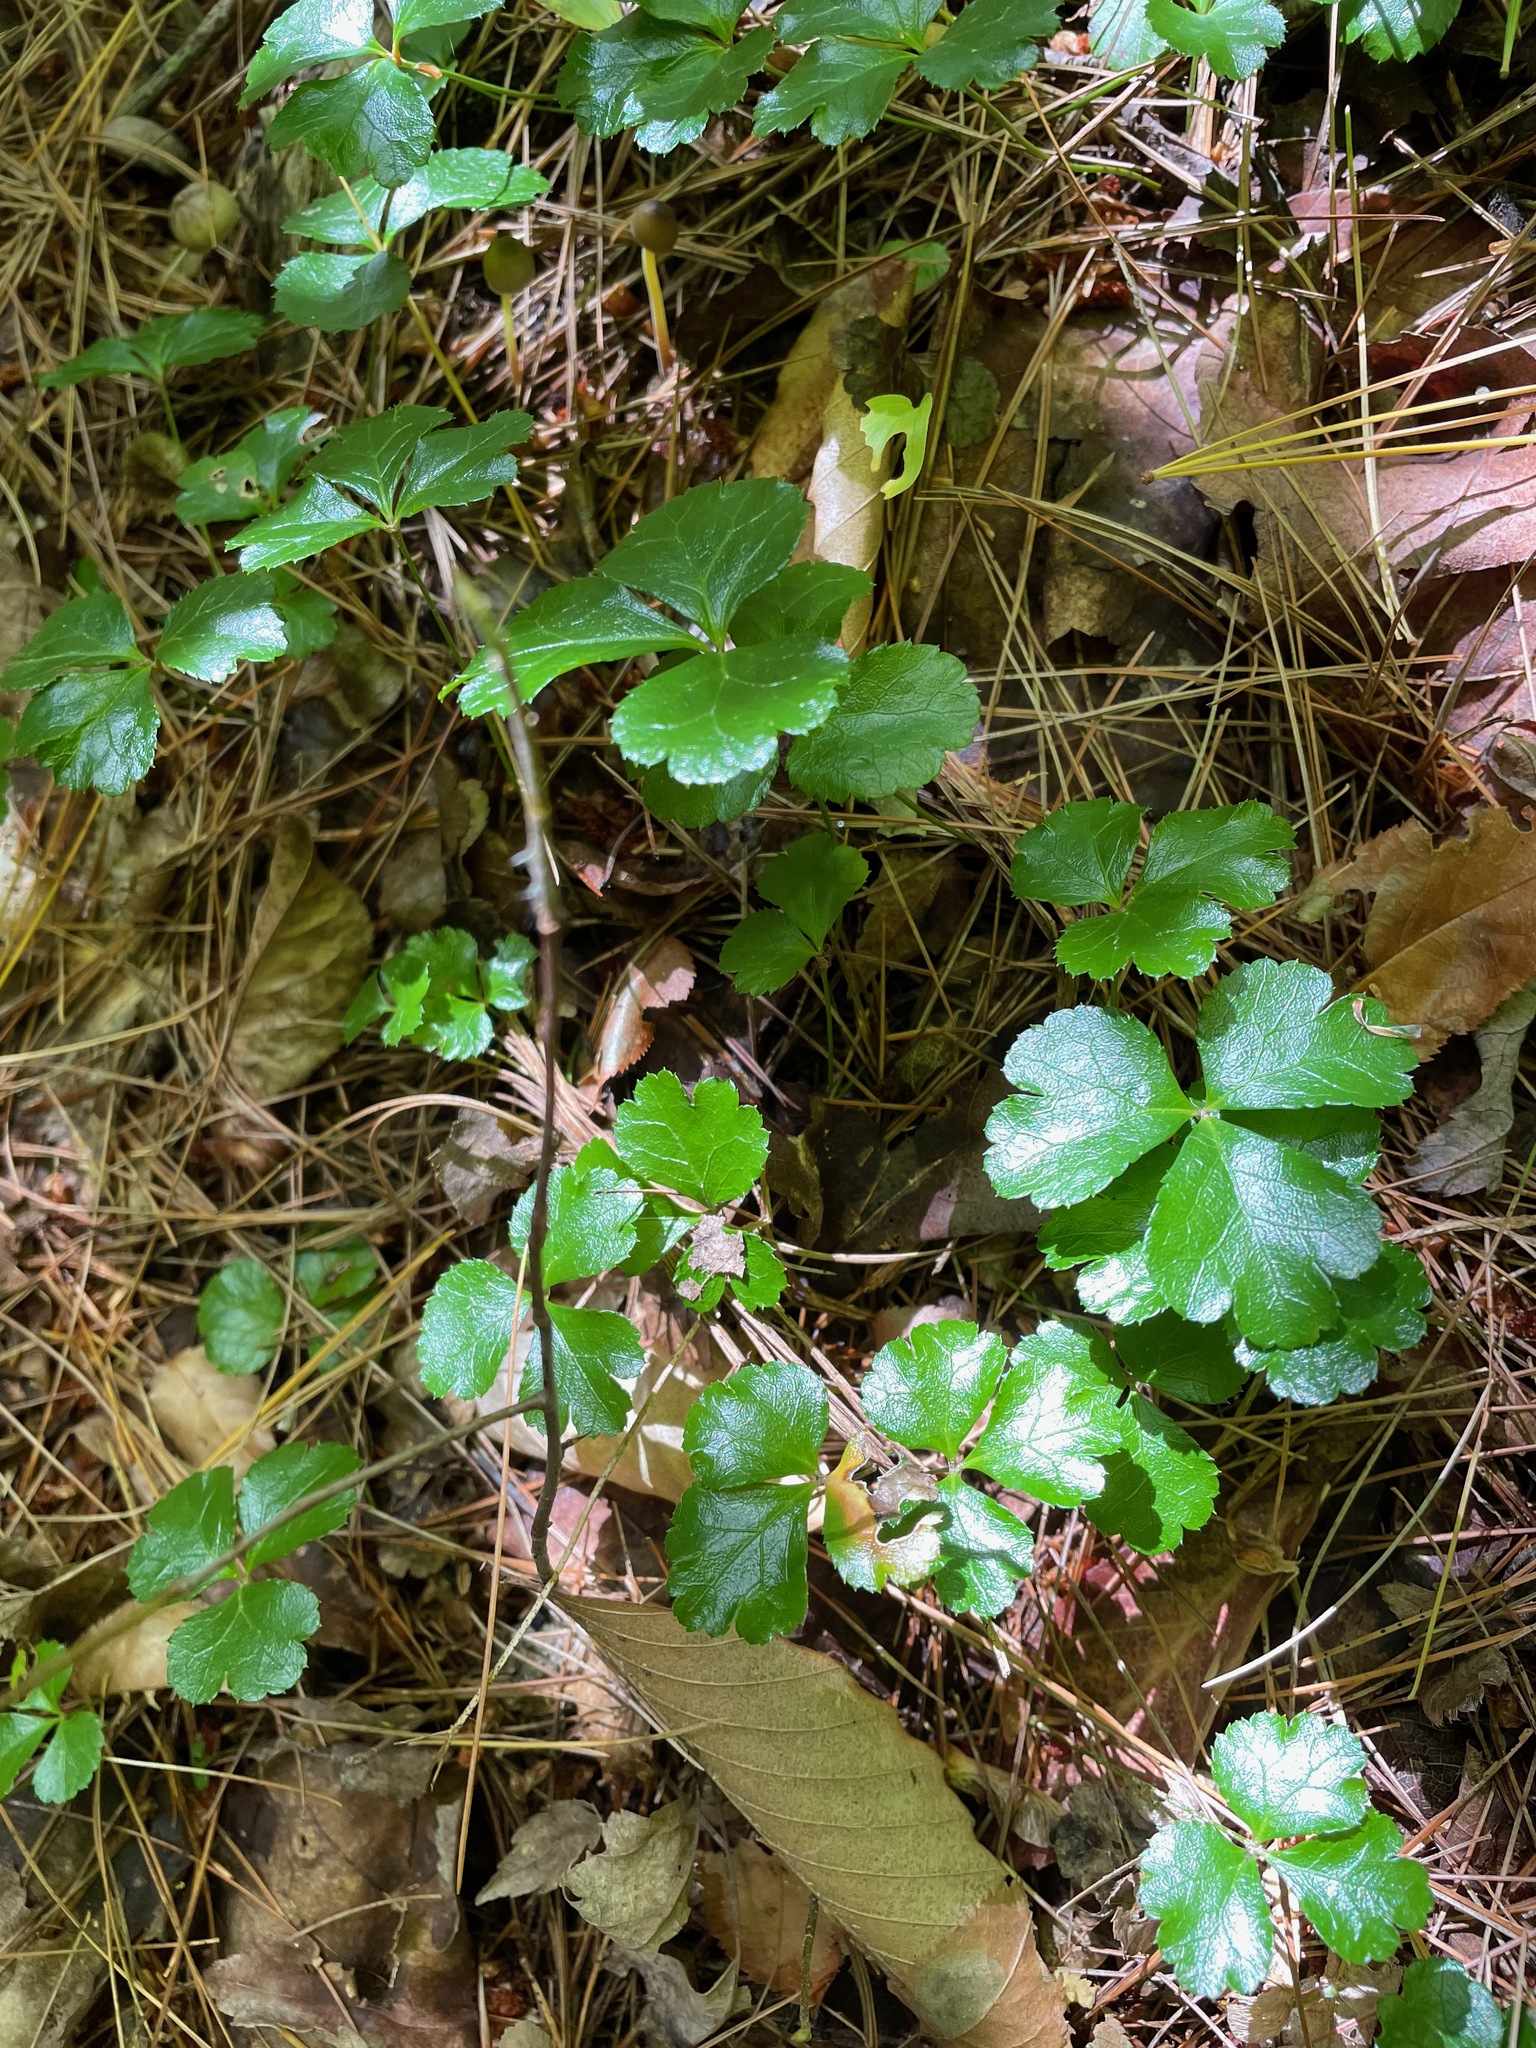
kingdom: Plantae
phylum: Tracheophyta
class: Magnoliopsida
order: Ranunculales
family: Ranunculaceae
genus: Coptis
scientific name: Coptis trifolia
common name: Canker-root
